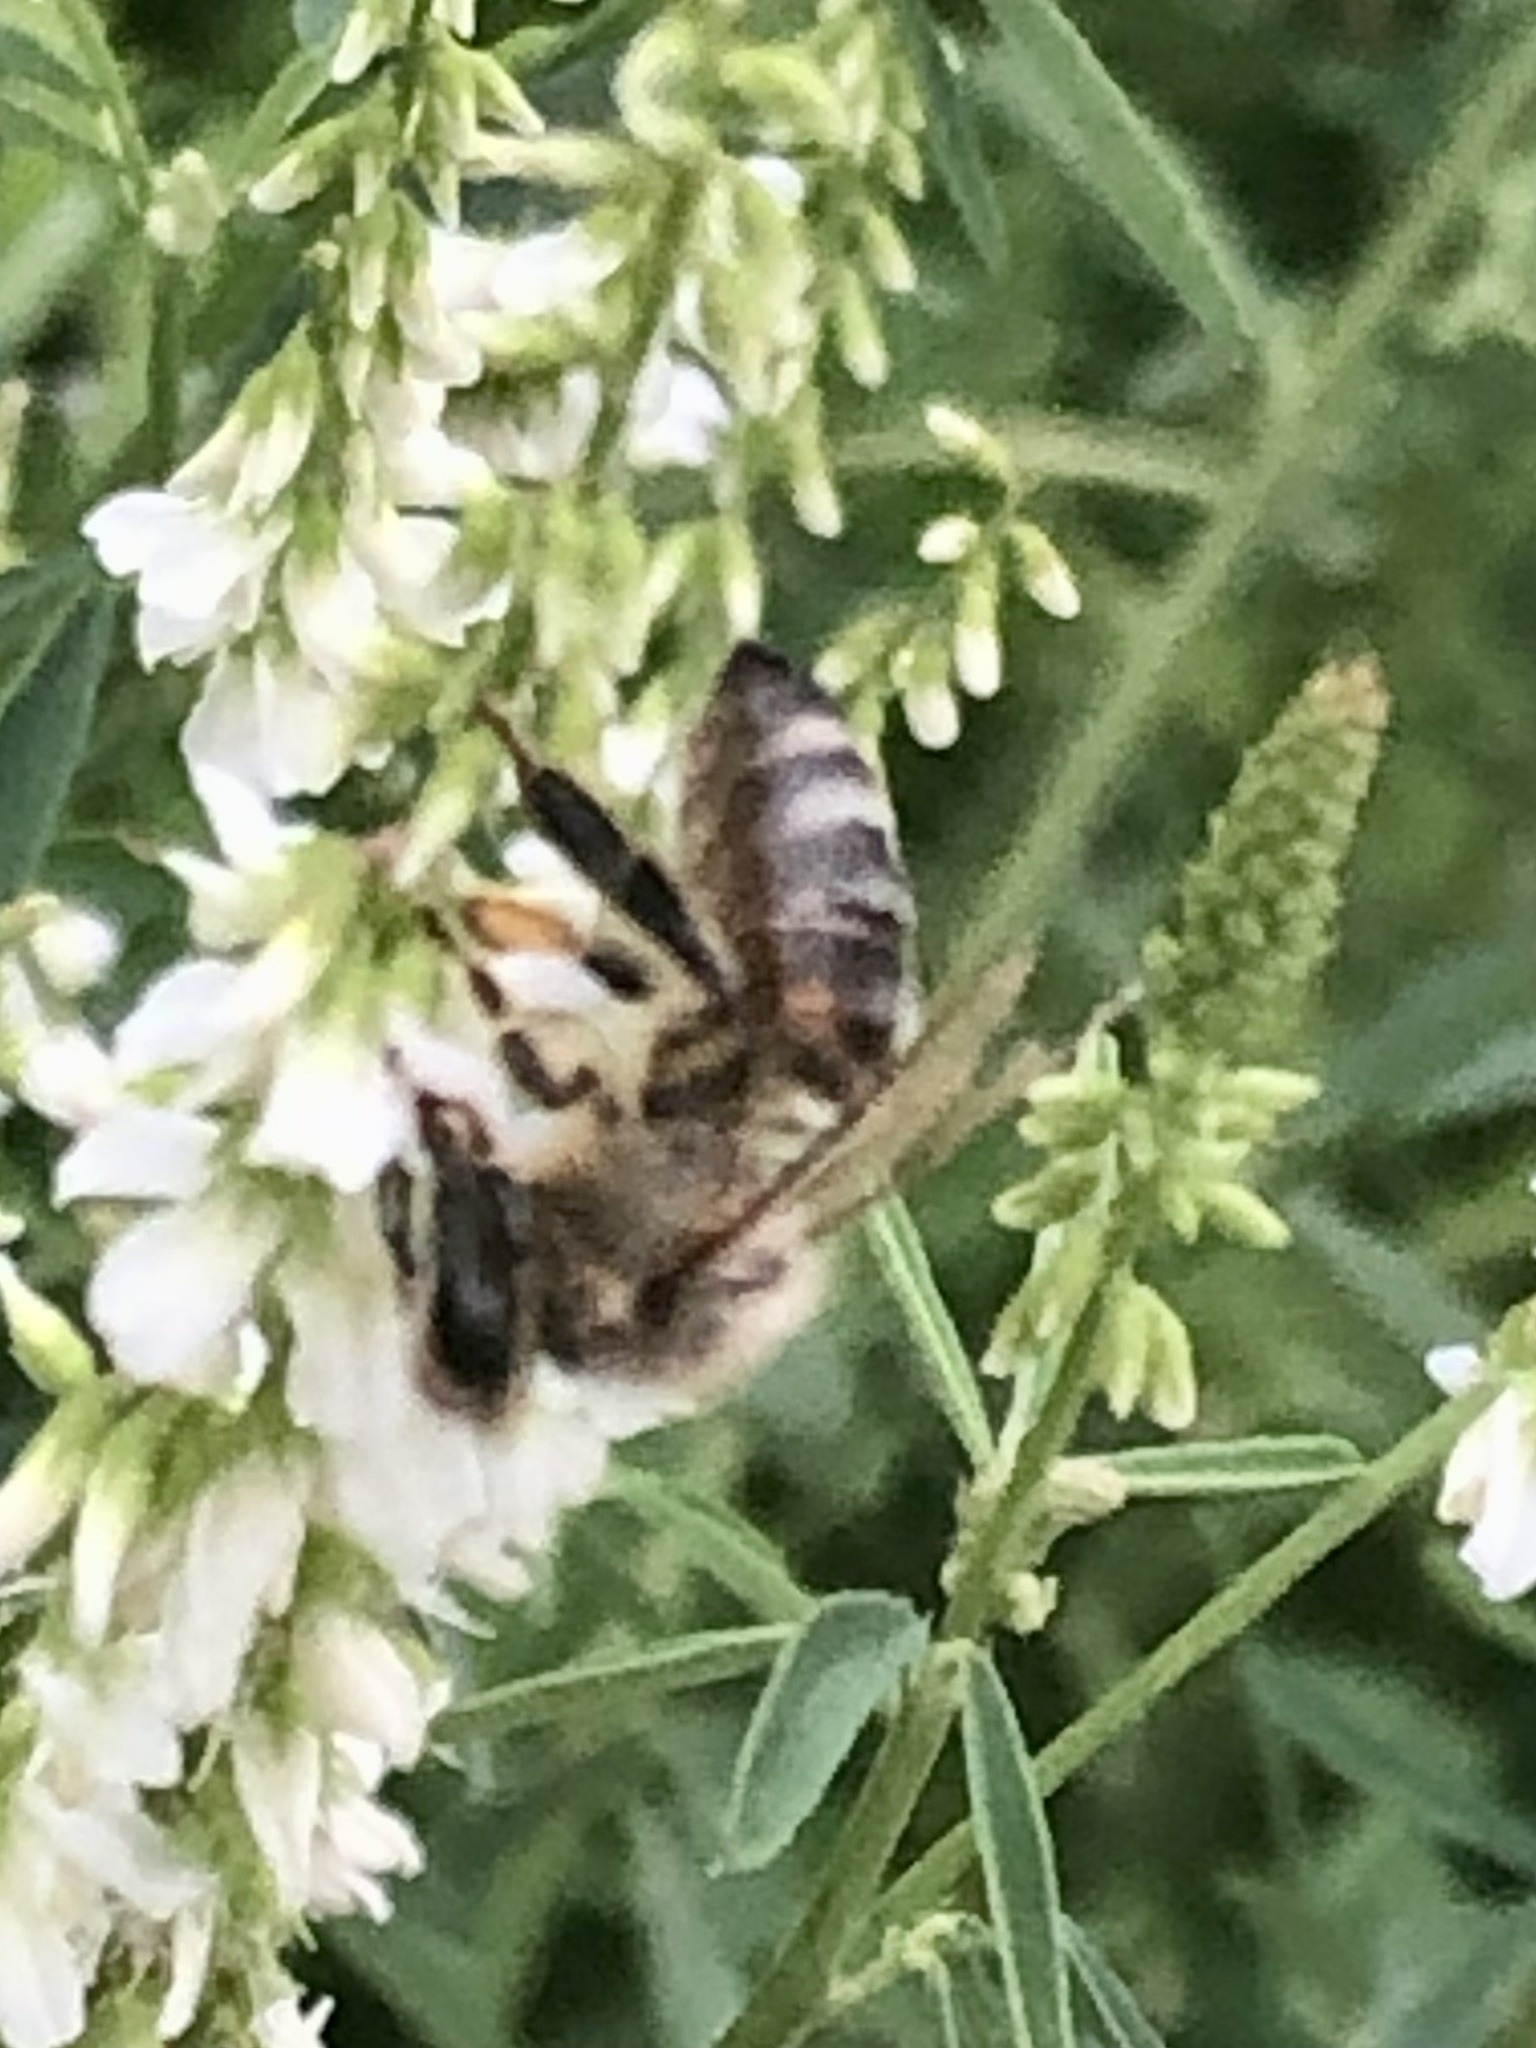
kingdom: Animalia
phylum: Arthropoda
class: Insecta
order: Hymenoptera
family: Apidae
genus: Apis
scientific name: Apis mellifera
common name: Honey bee
